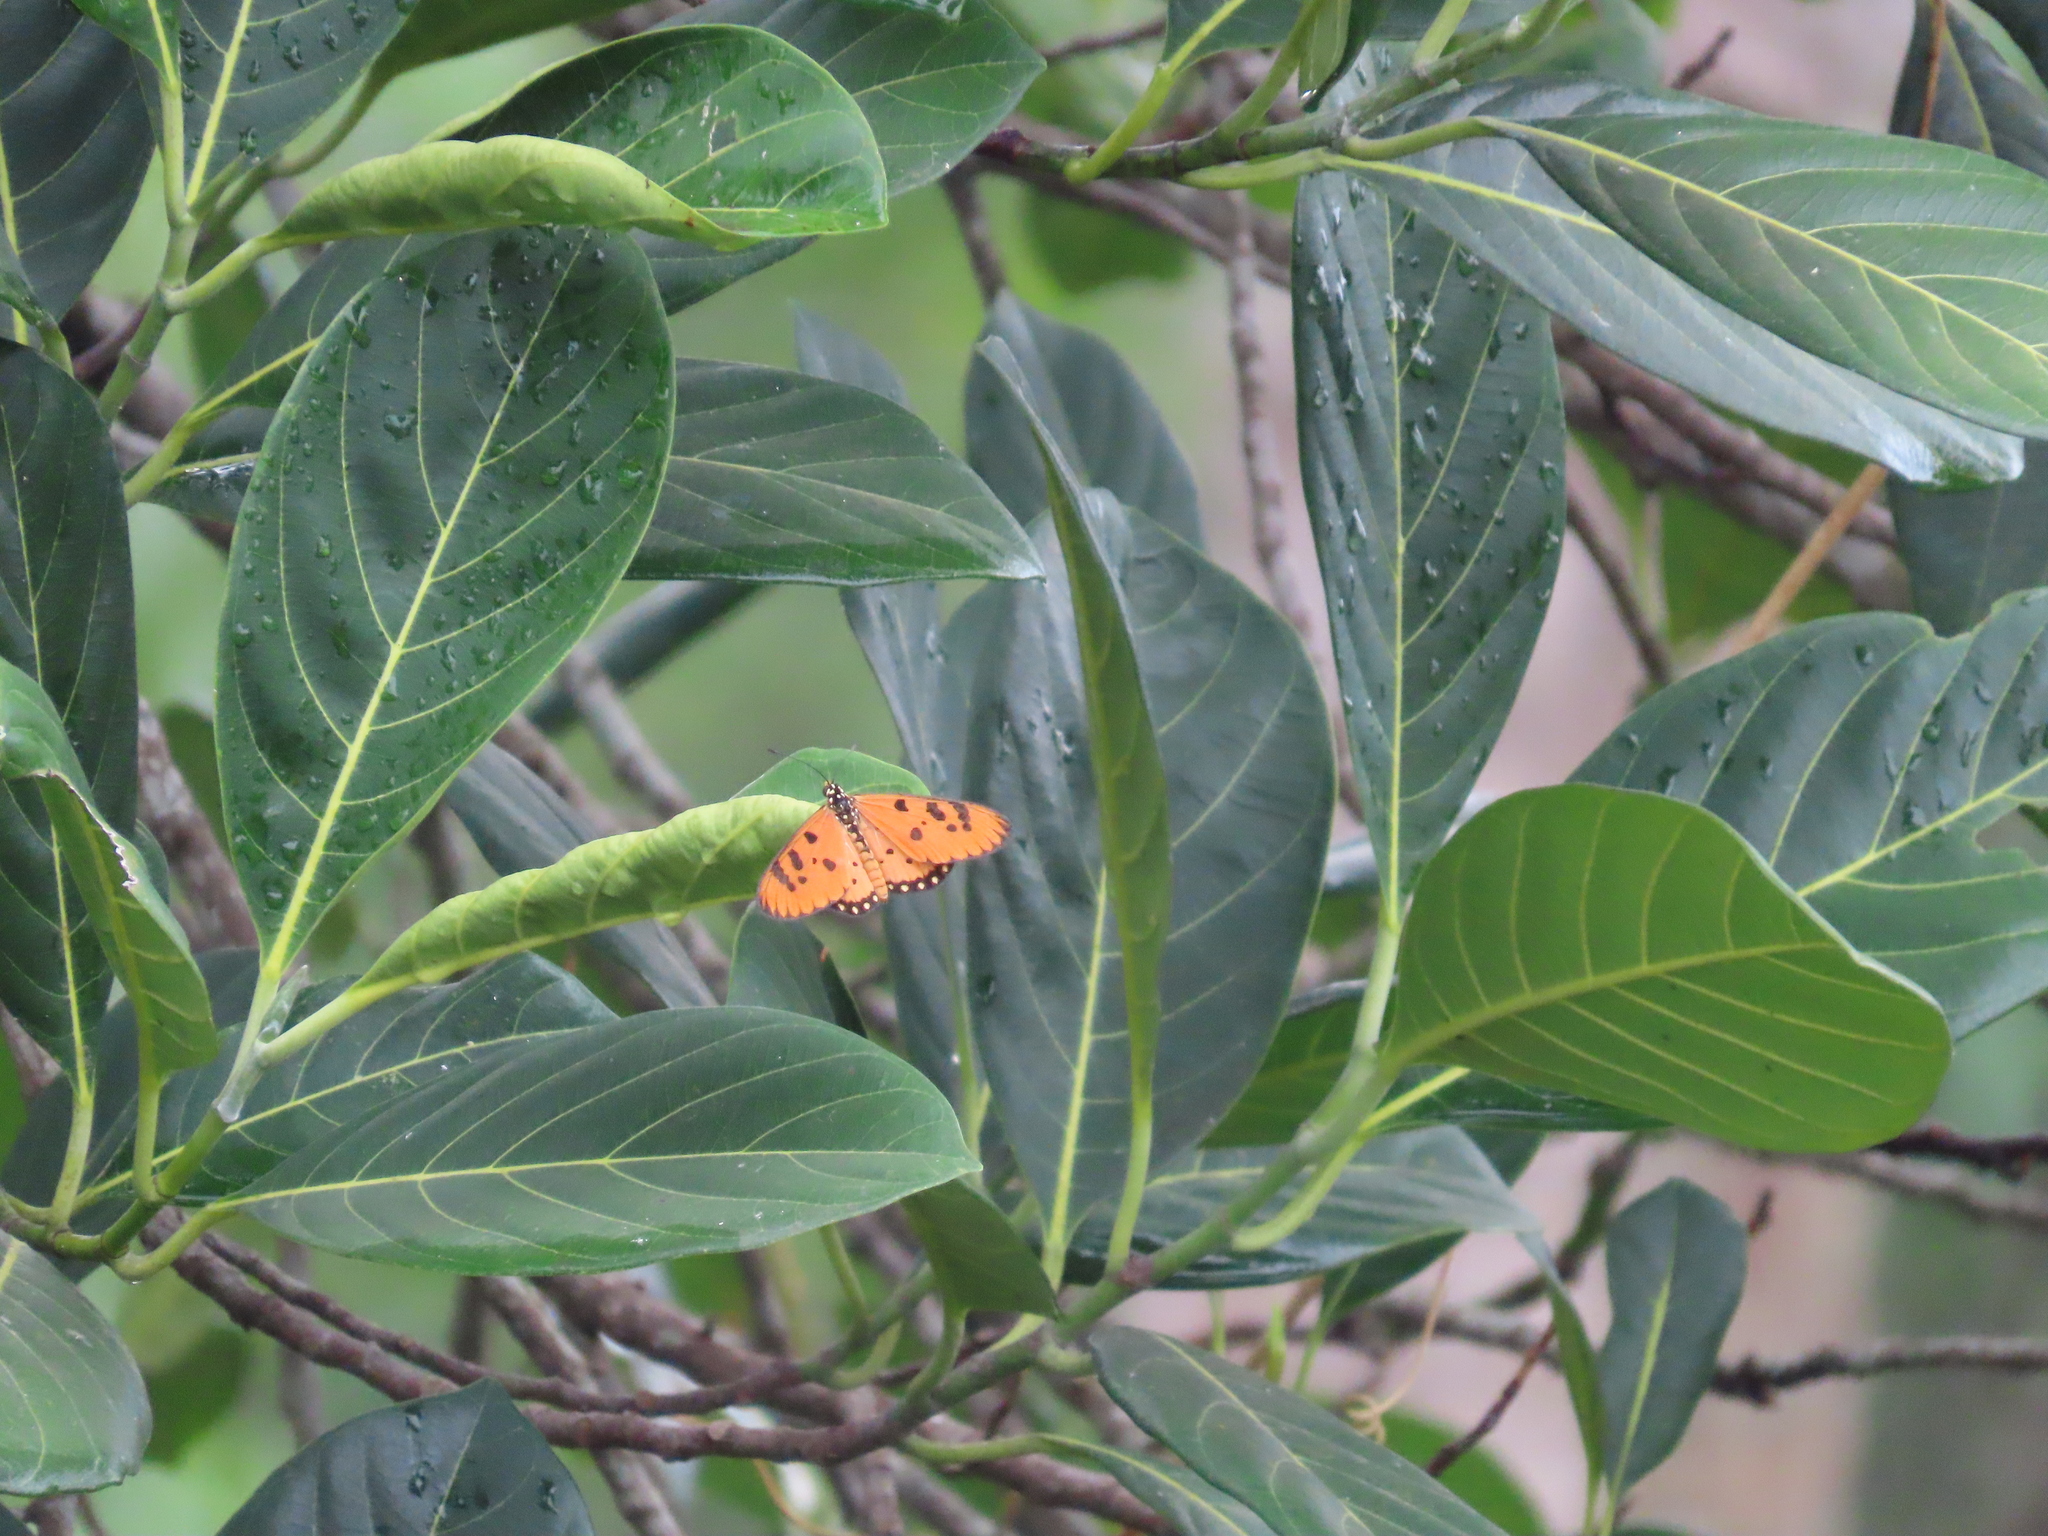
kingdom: Animalia
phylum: Arthropoda
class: Insecta
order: Lepidoptera
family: Nymphalidae
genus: Acraea
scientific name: Acraea terpsicore
